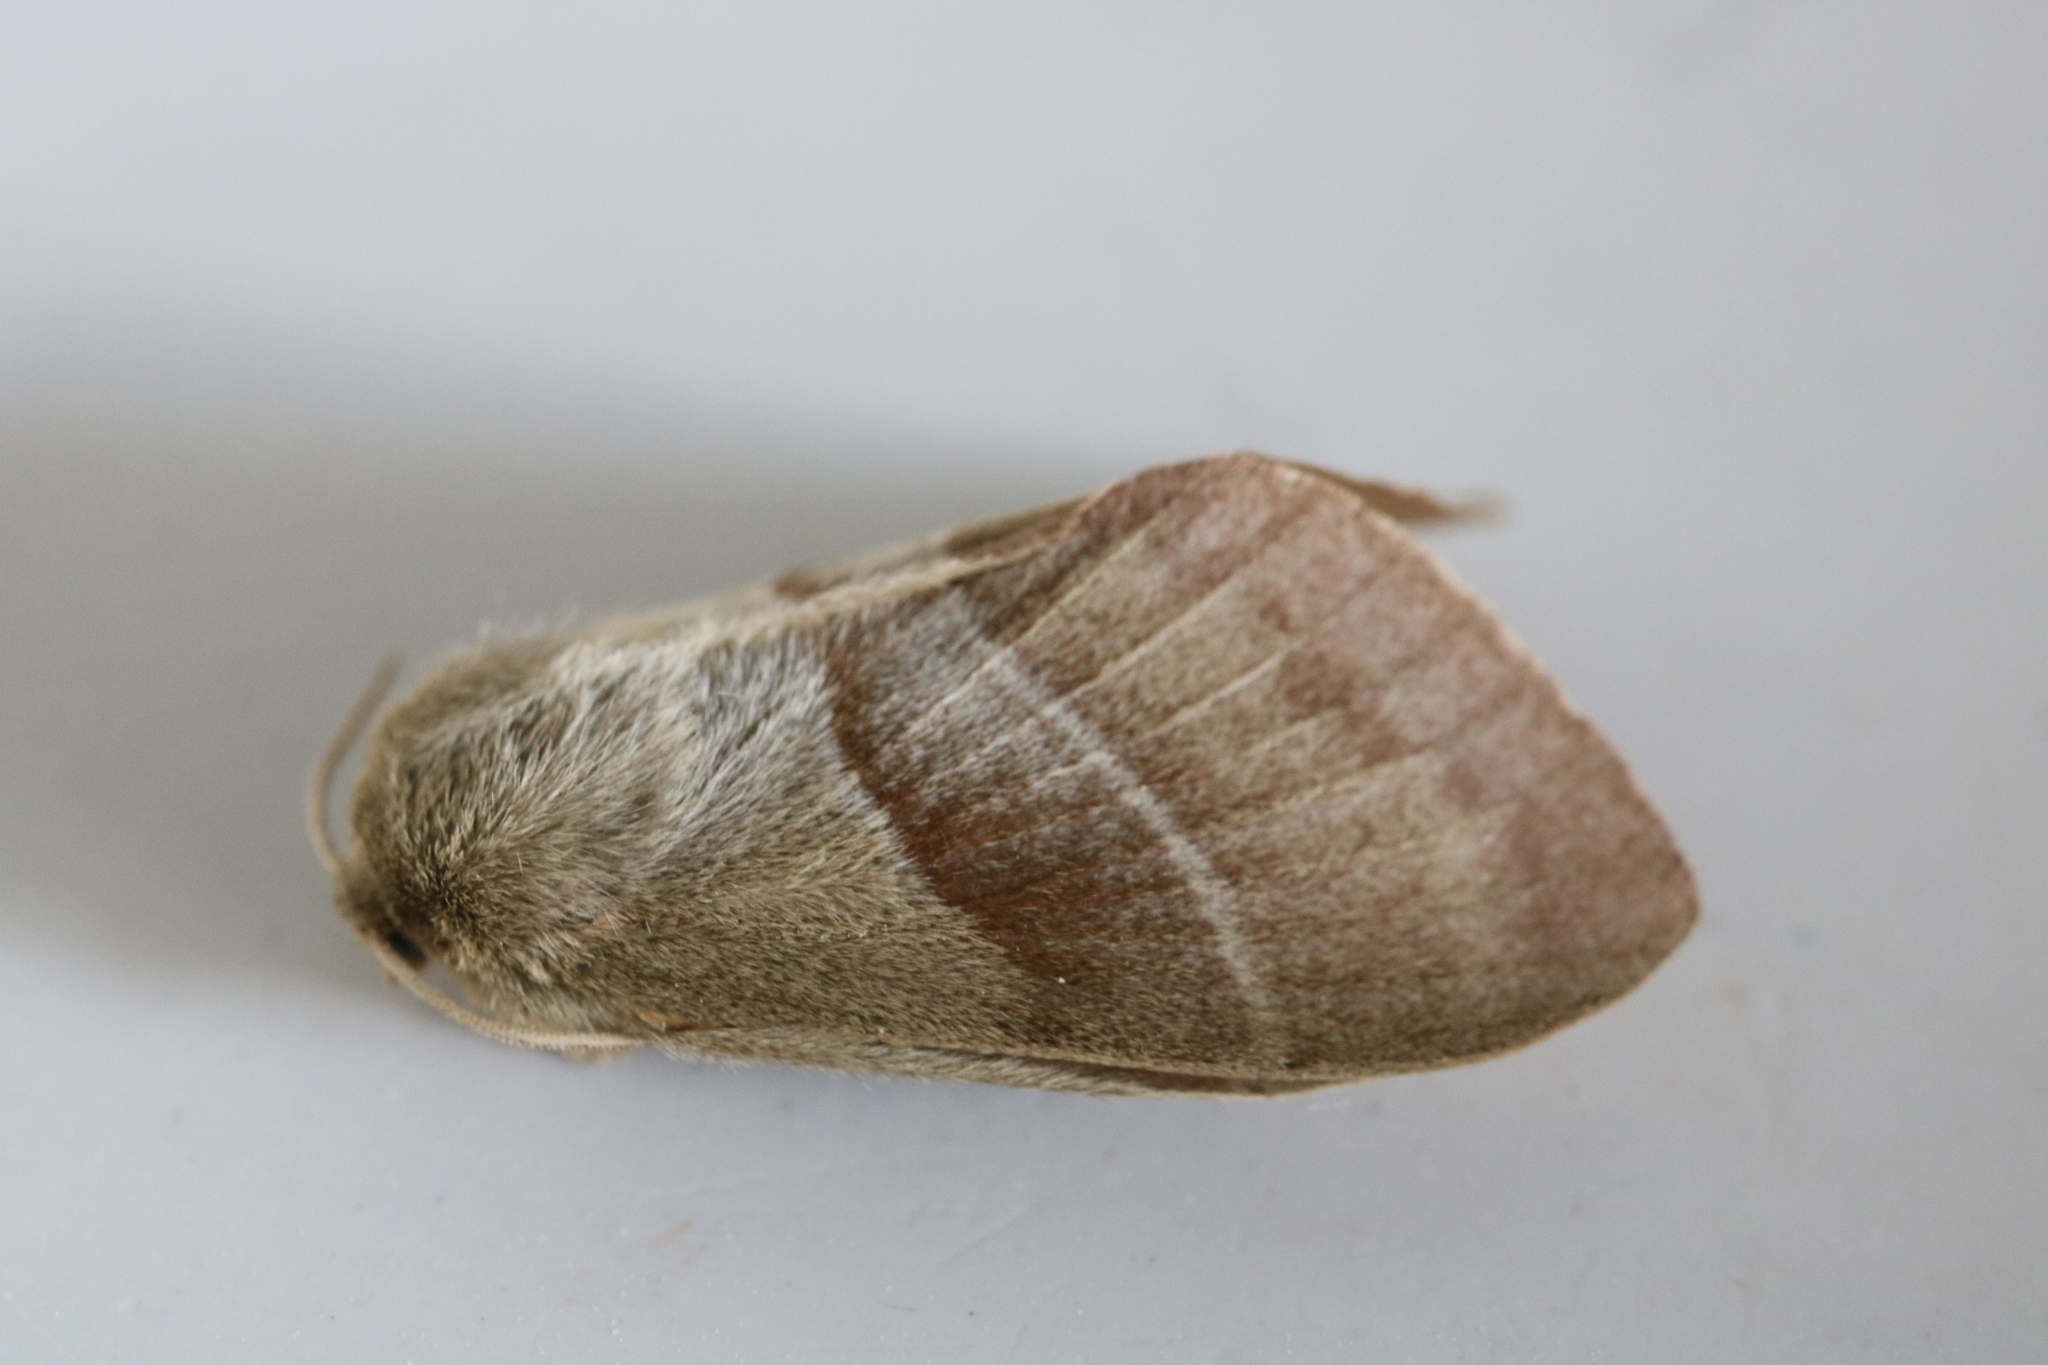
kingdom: Animalia
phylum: Arthropoda
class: Insecta
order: Lepidoptera
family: Lasiocampidae
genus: Macrothylacia
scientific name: Macrothylacia rubi
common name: Fox moth
